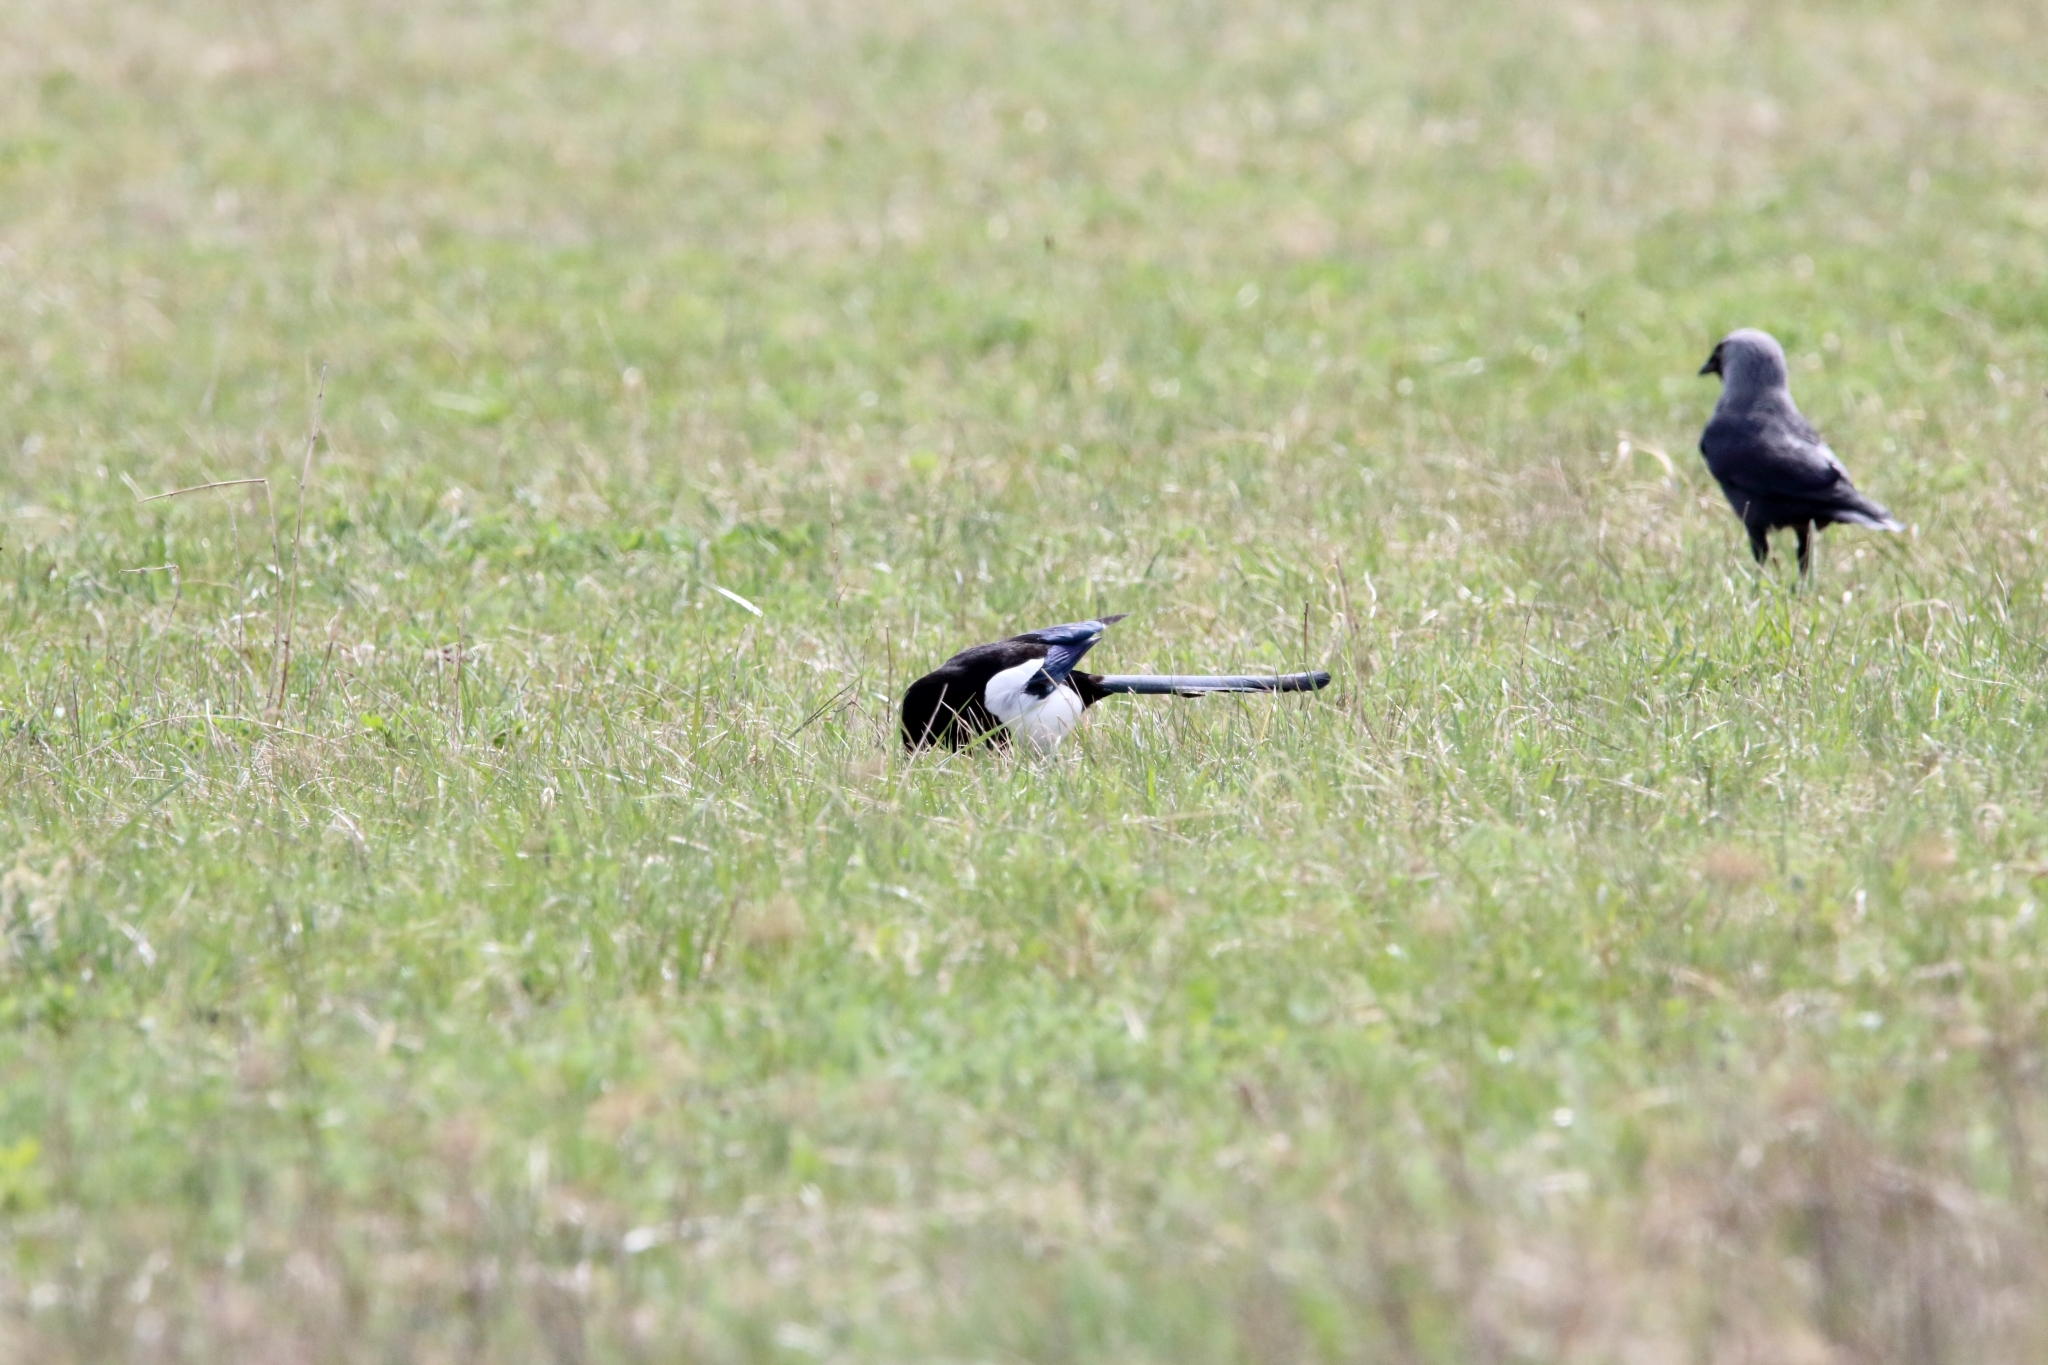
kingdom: Animalia
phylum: Chordata
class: Aves
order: Passeriformes
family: Corvidae
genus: Pica
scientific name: Pica pica
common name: Eurasian magpie
